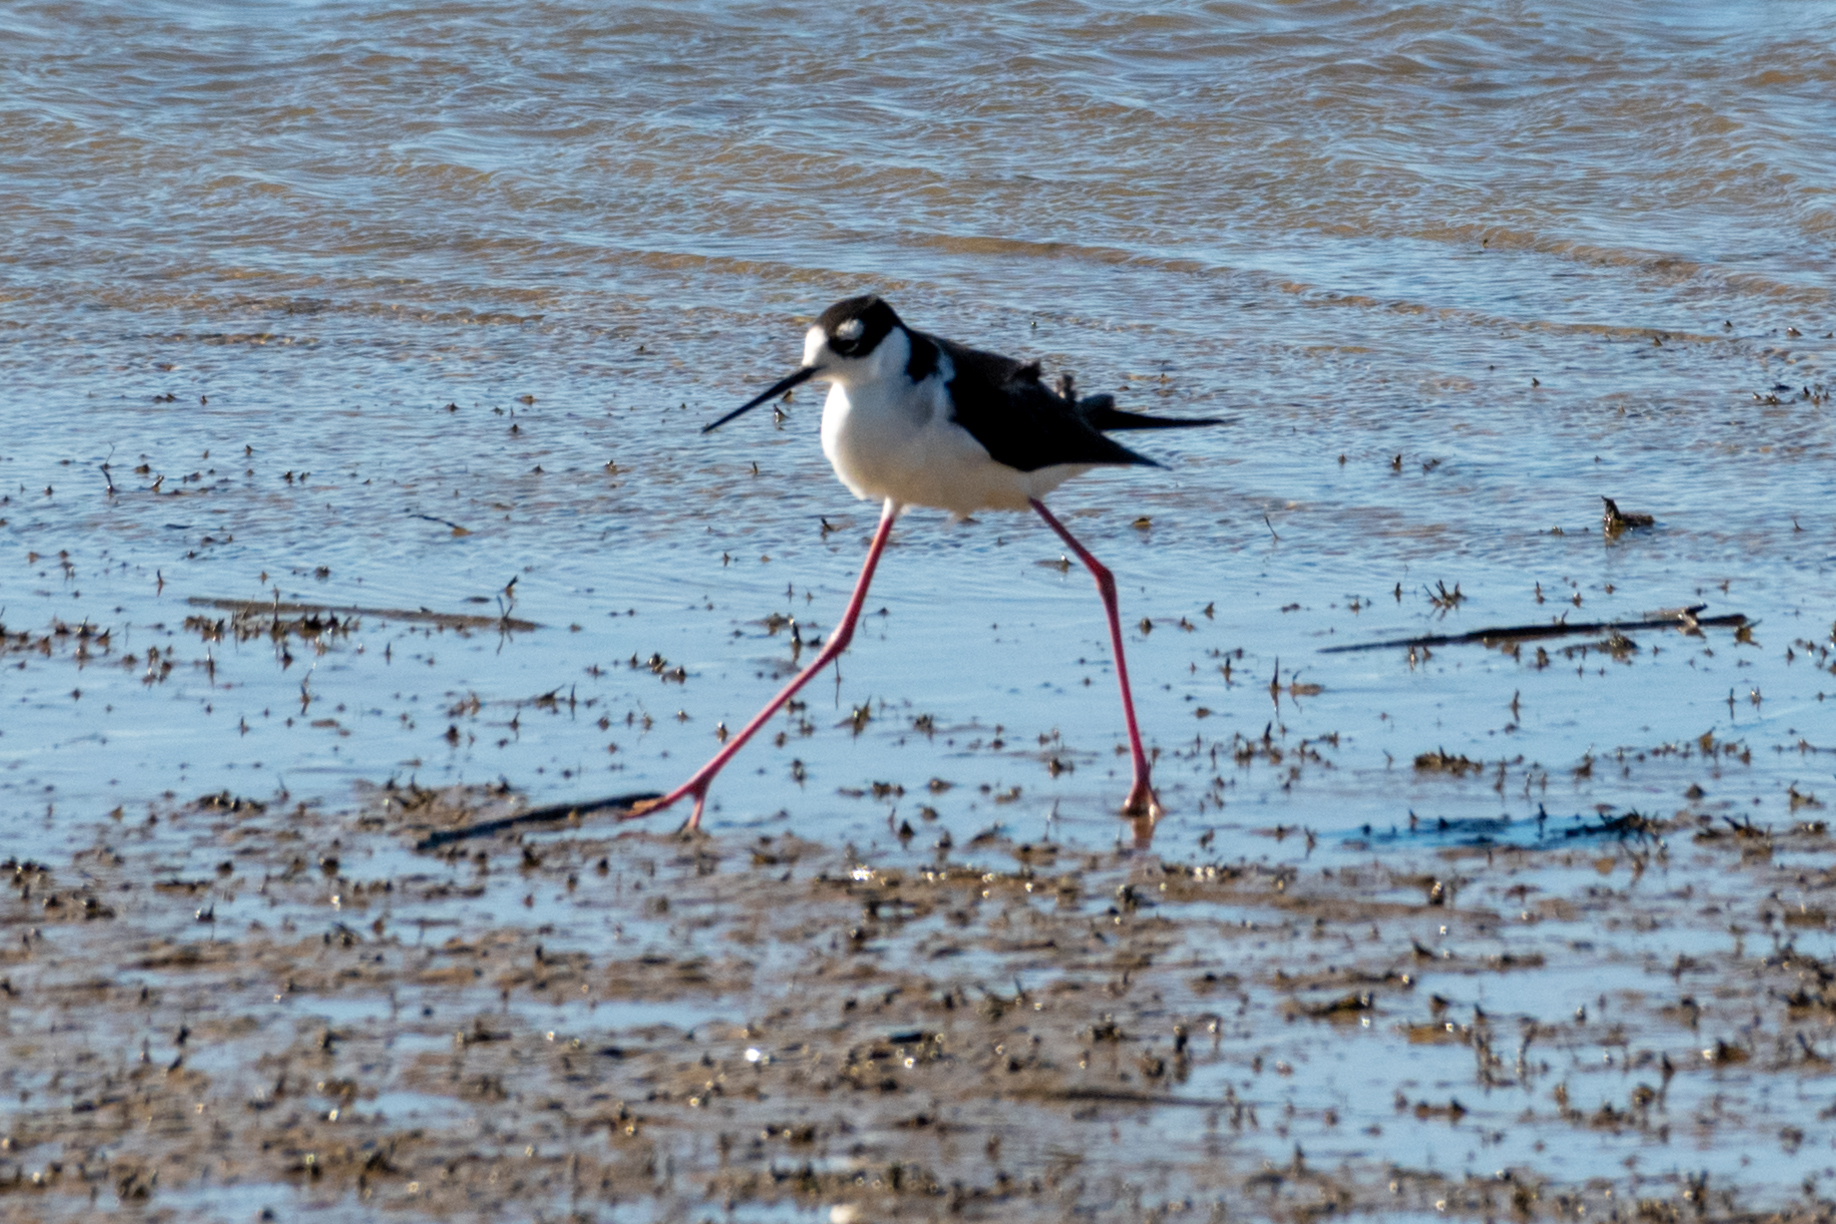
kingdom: Animalia
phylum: Chordata
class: Aves
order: Charadriiformes
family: Recurvirostridae
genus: Himantopus
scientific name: Himantopus mexicanus
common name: Black-necked stilt
